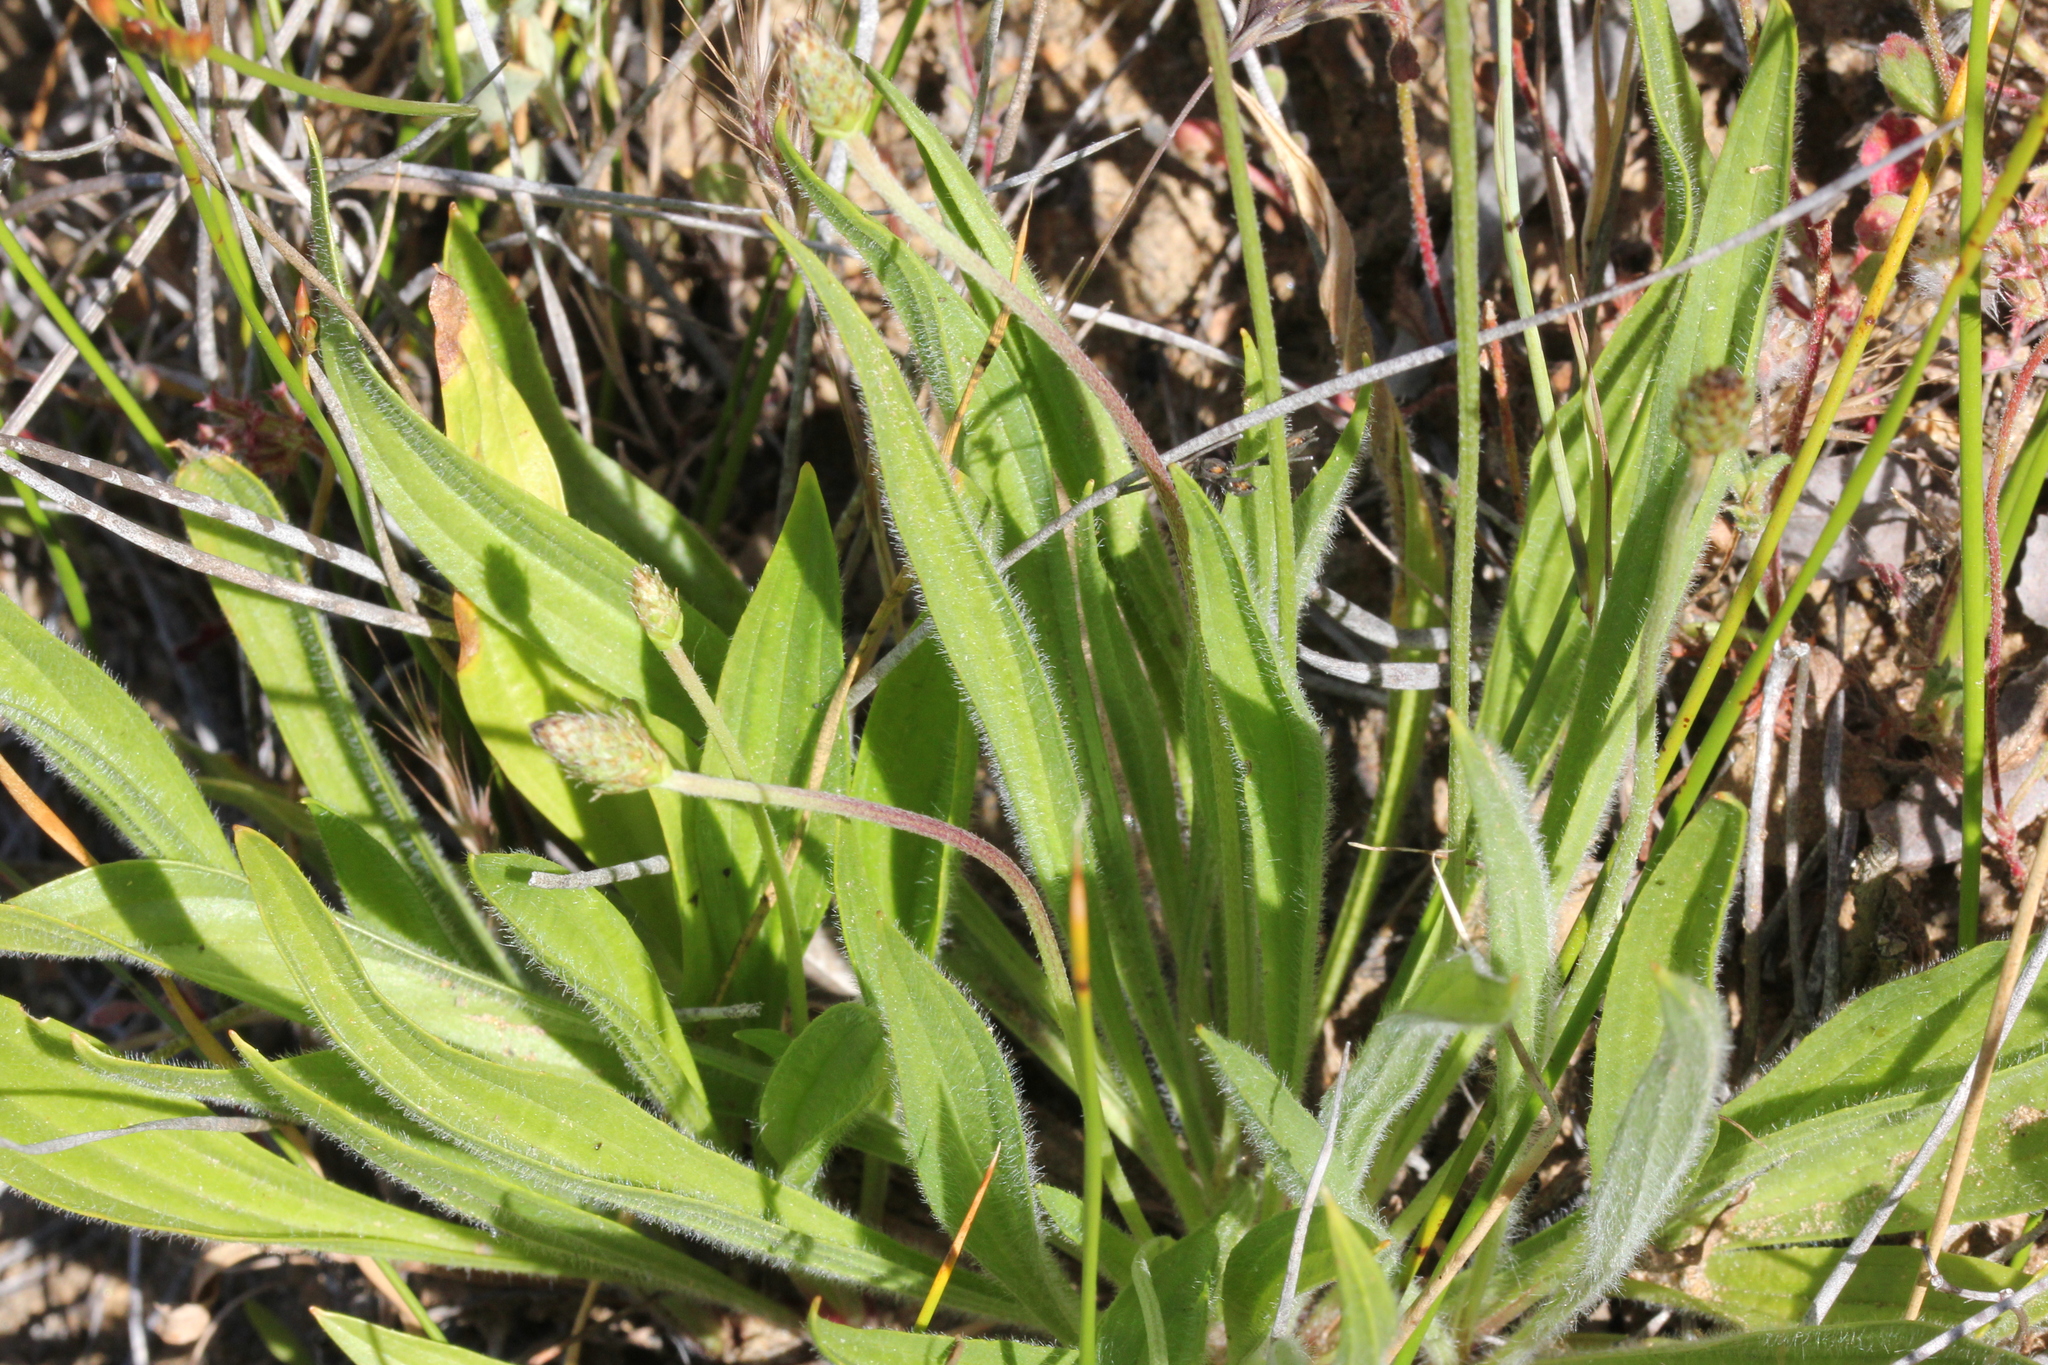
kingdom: Plantae
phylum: Tracheophyta
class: Magnoliopsida
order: Lamiales
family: Plantaginaceae
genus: Plantago
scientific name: Plantago lanceolata
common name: Ribwort plantain
